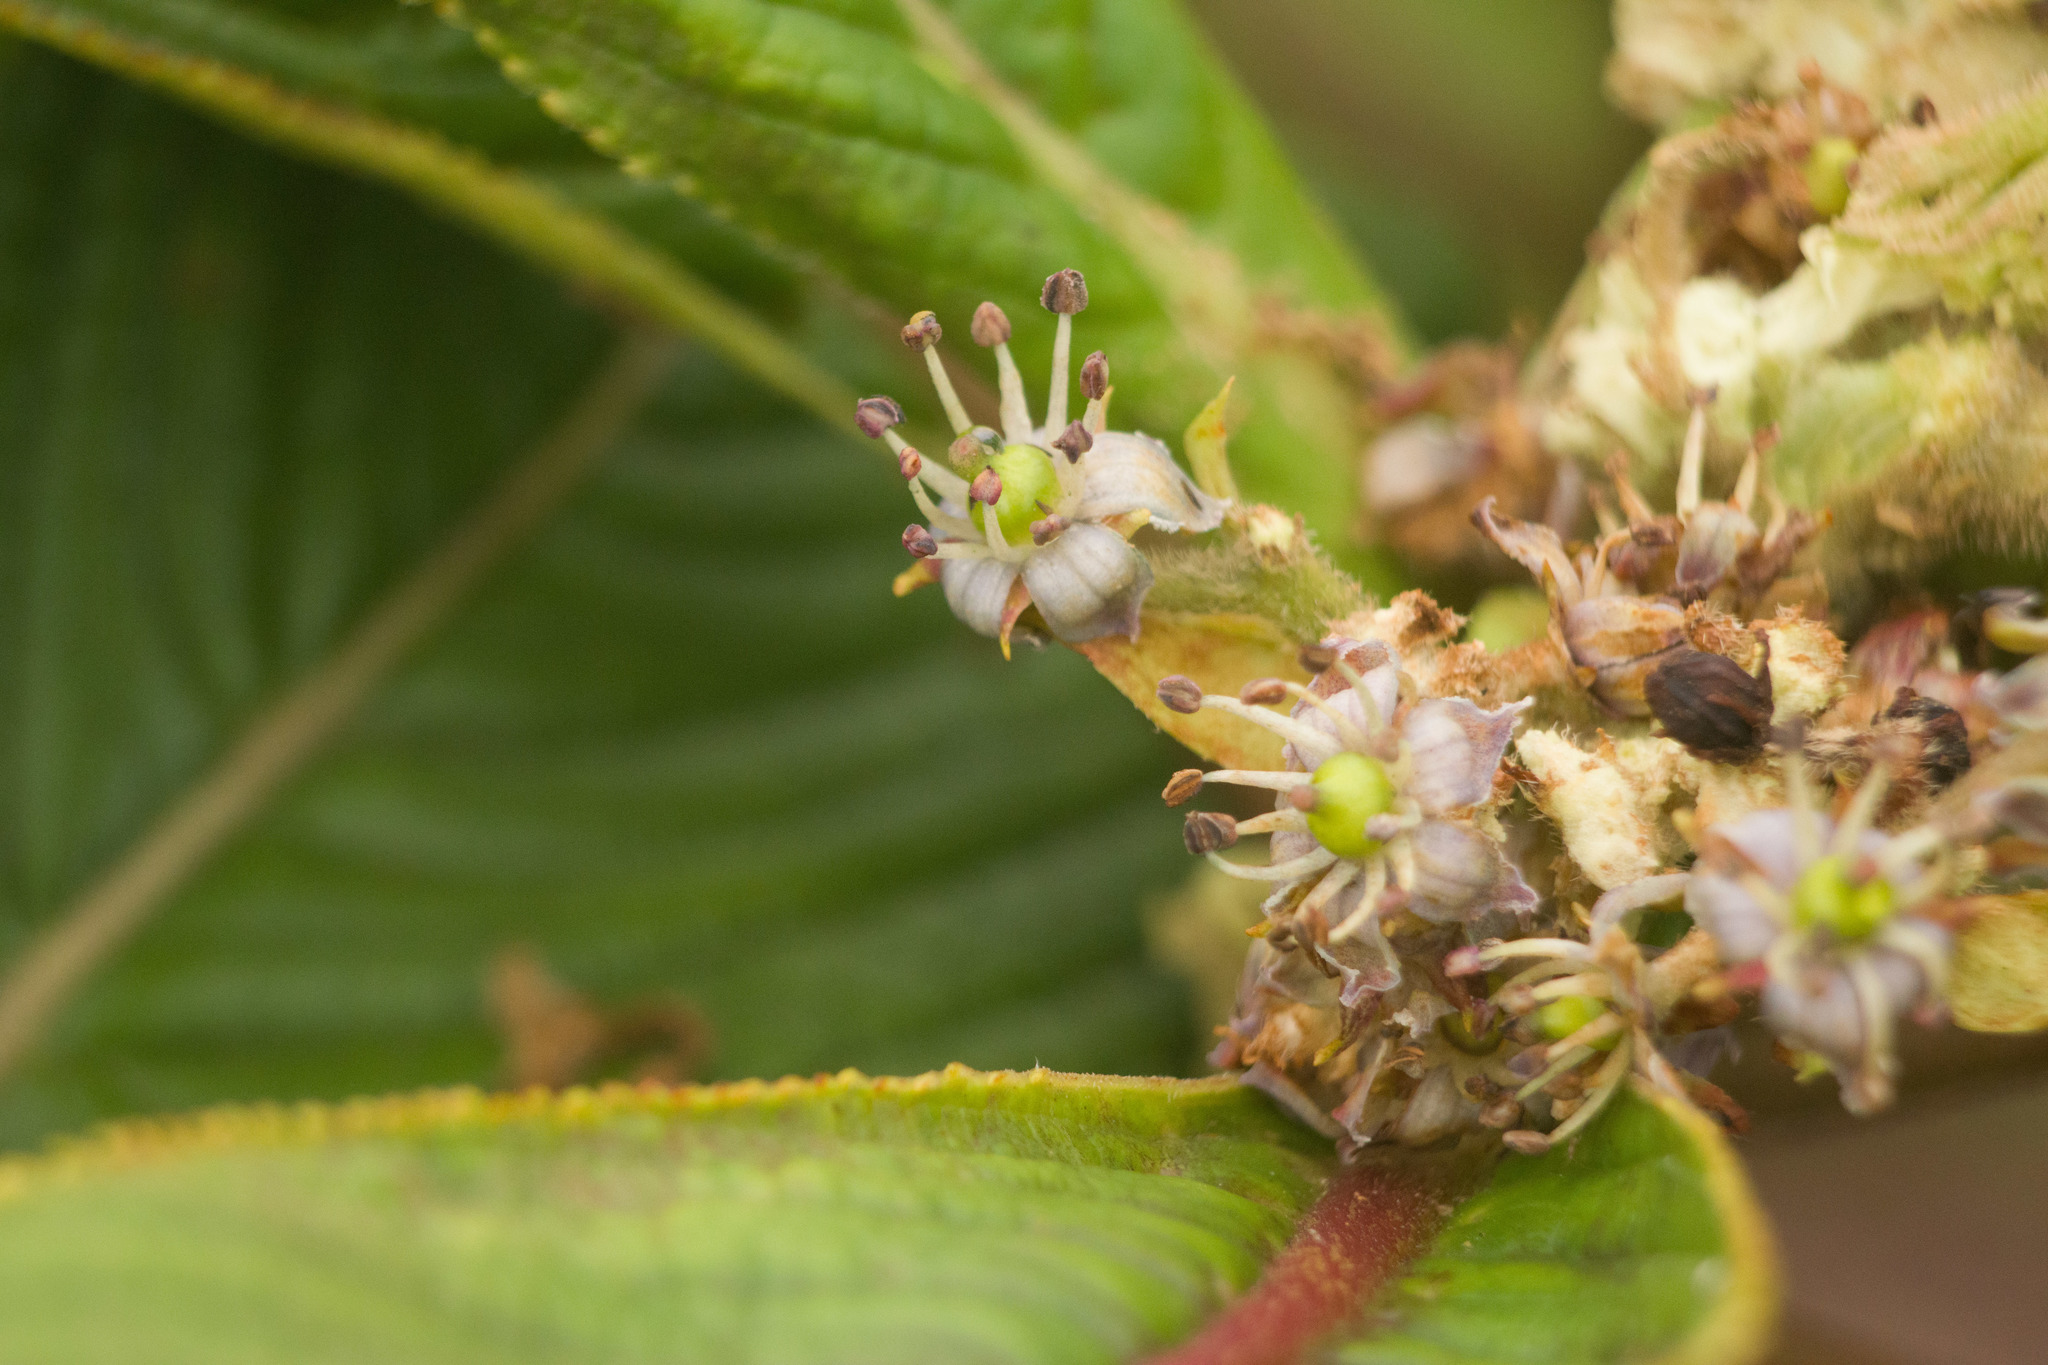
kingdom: Plantae
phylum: Tracheophyta
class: Magnoliopsida
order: Cornales
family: Hydrangeaceae
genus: Hydrangea
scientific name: Hydrangea arguta
